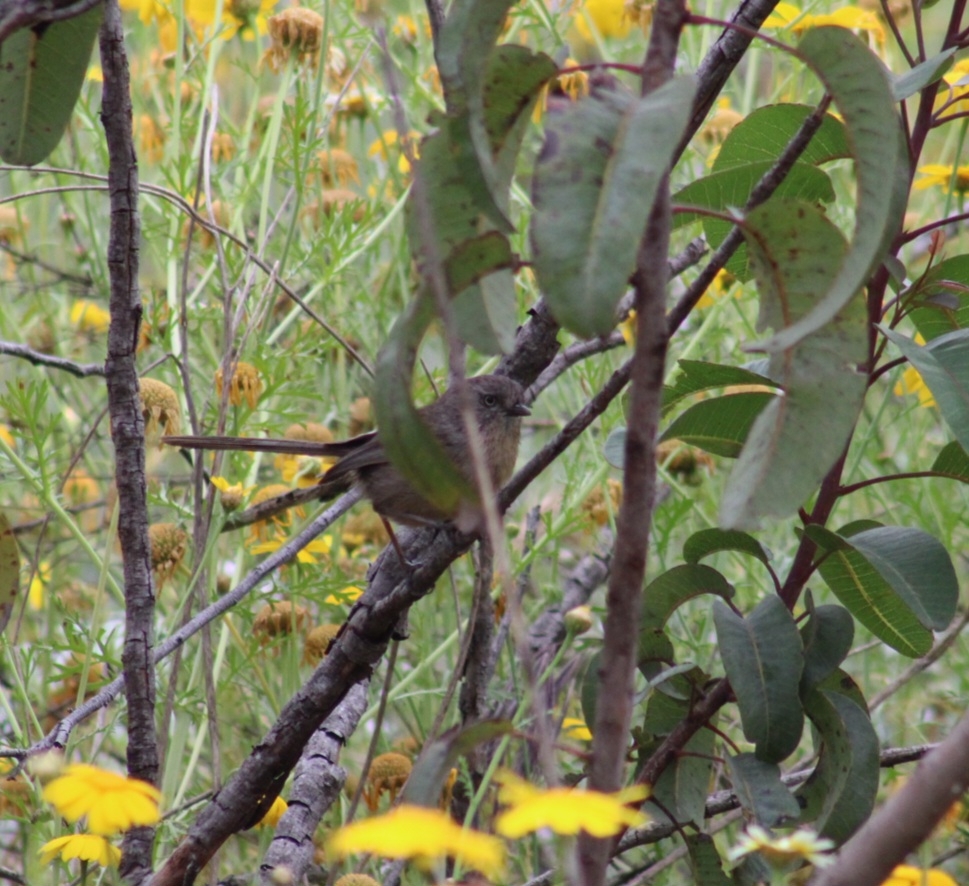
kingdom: Animalia
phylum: Chordata
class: Aves
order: Passeriformes
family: Sylviidae
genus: Chamaea
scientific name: Chamaea fasciata
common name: Wrentit
